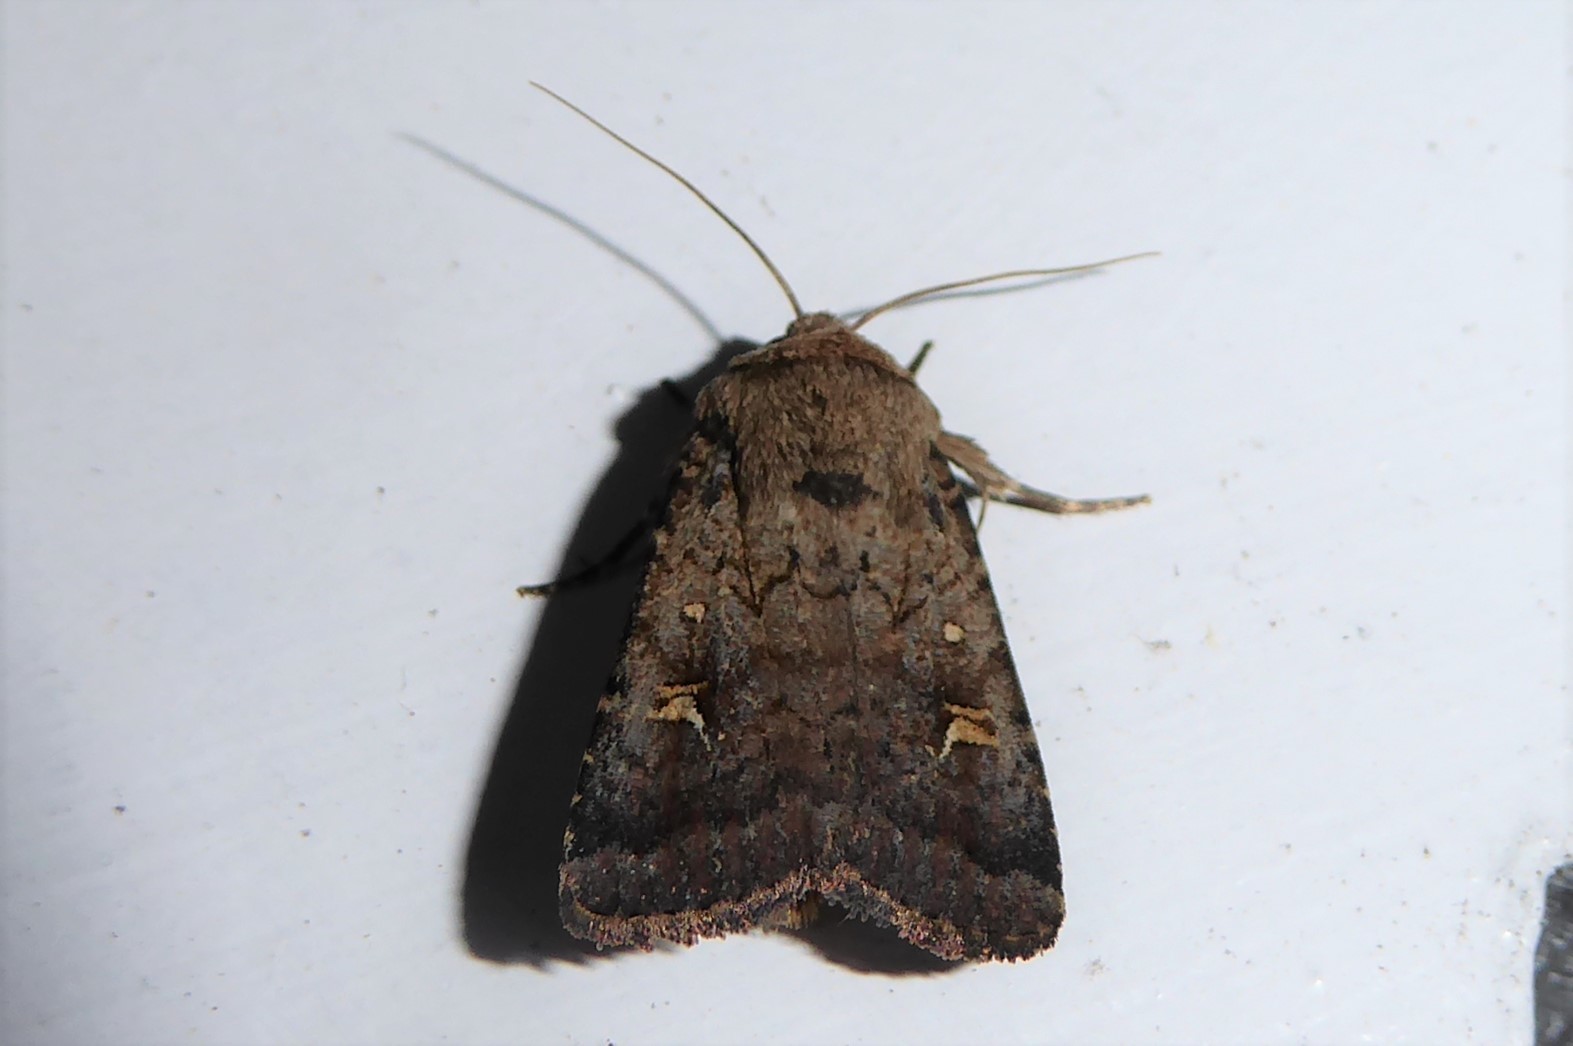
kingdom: Animalia
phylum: Arthropoda
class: Insecta
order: Lepidoptera
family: Noctuidae
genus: Proteuxoa
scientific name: Proteuxoa tetronycha
